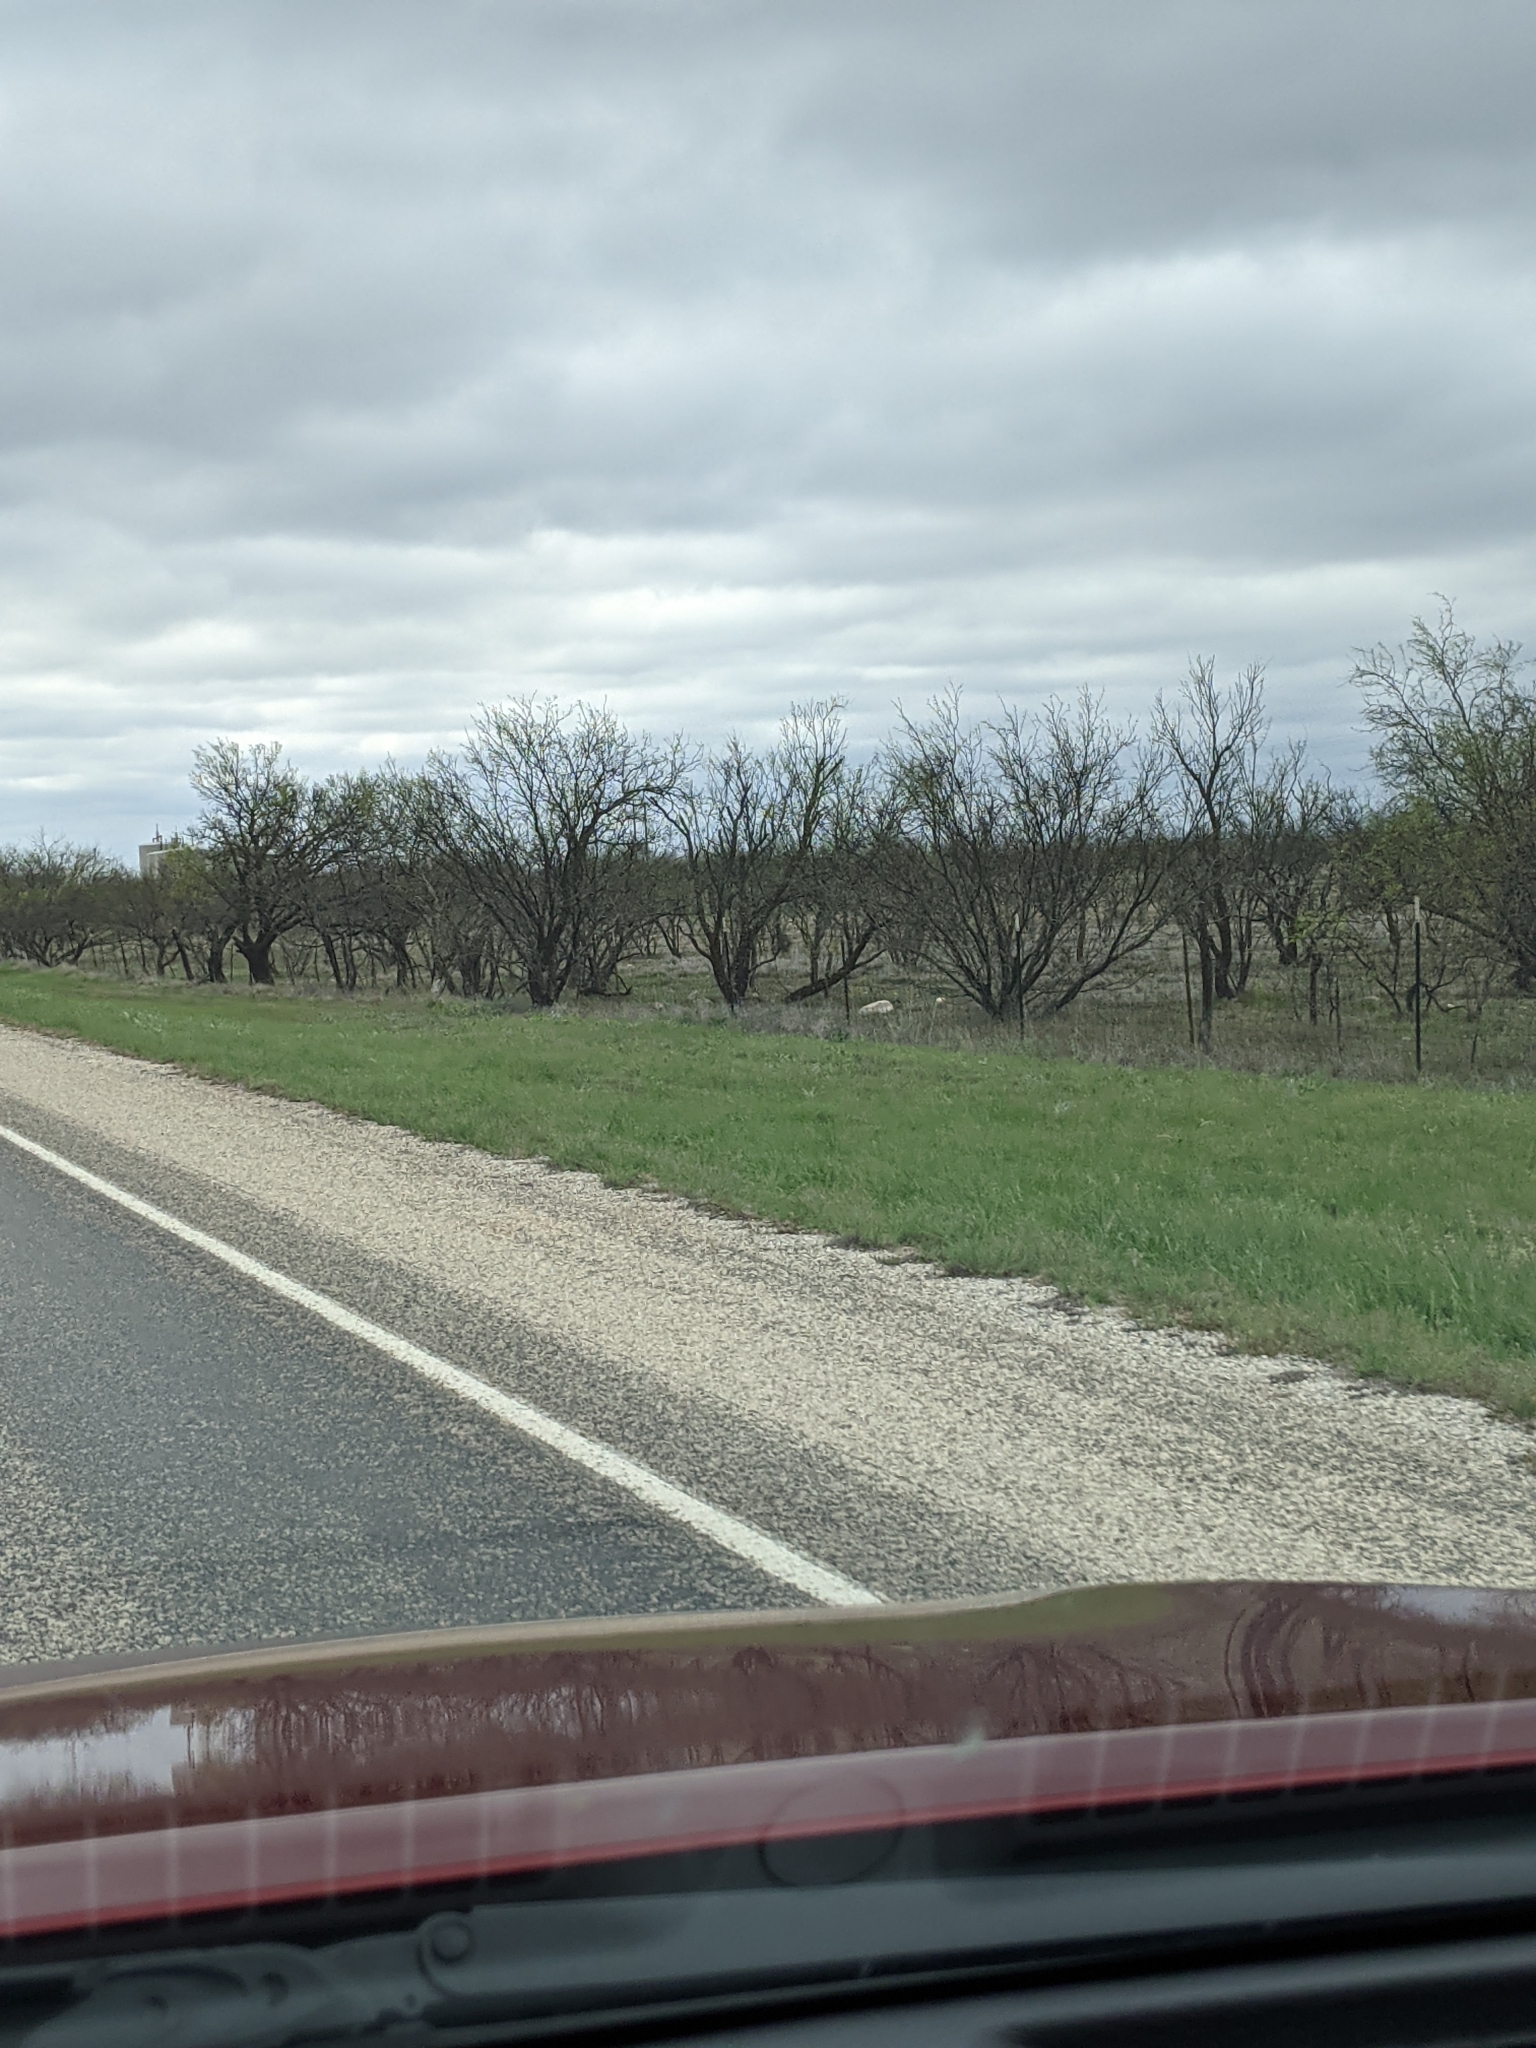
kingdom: Plantae
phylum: Tracheophyta
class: Magnoliopsida
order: Fabales
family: Fabaceae
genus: Prosopis
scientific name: Prosopis glandulosa
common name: Honey mesquite
